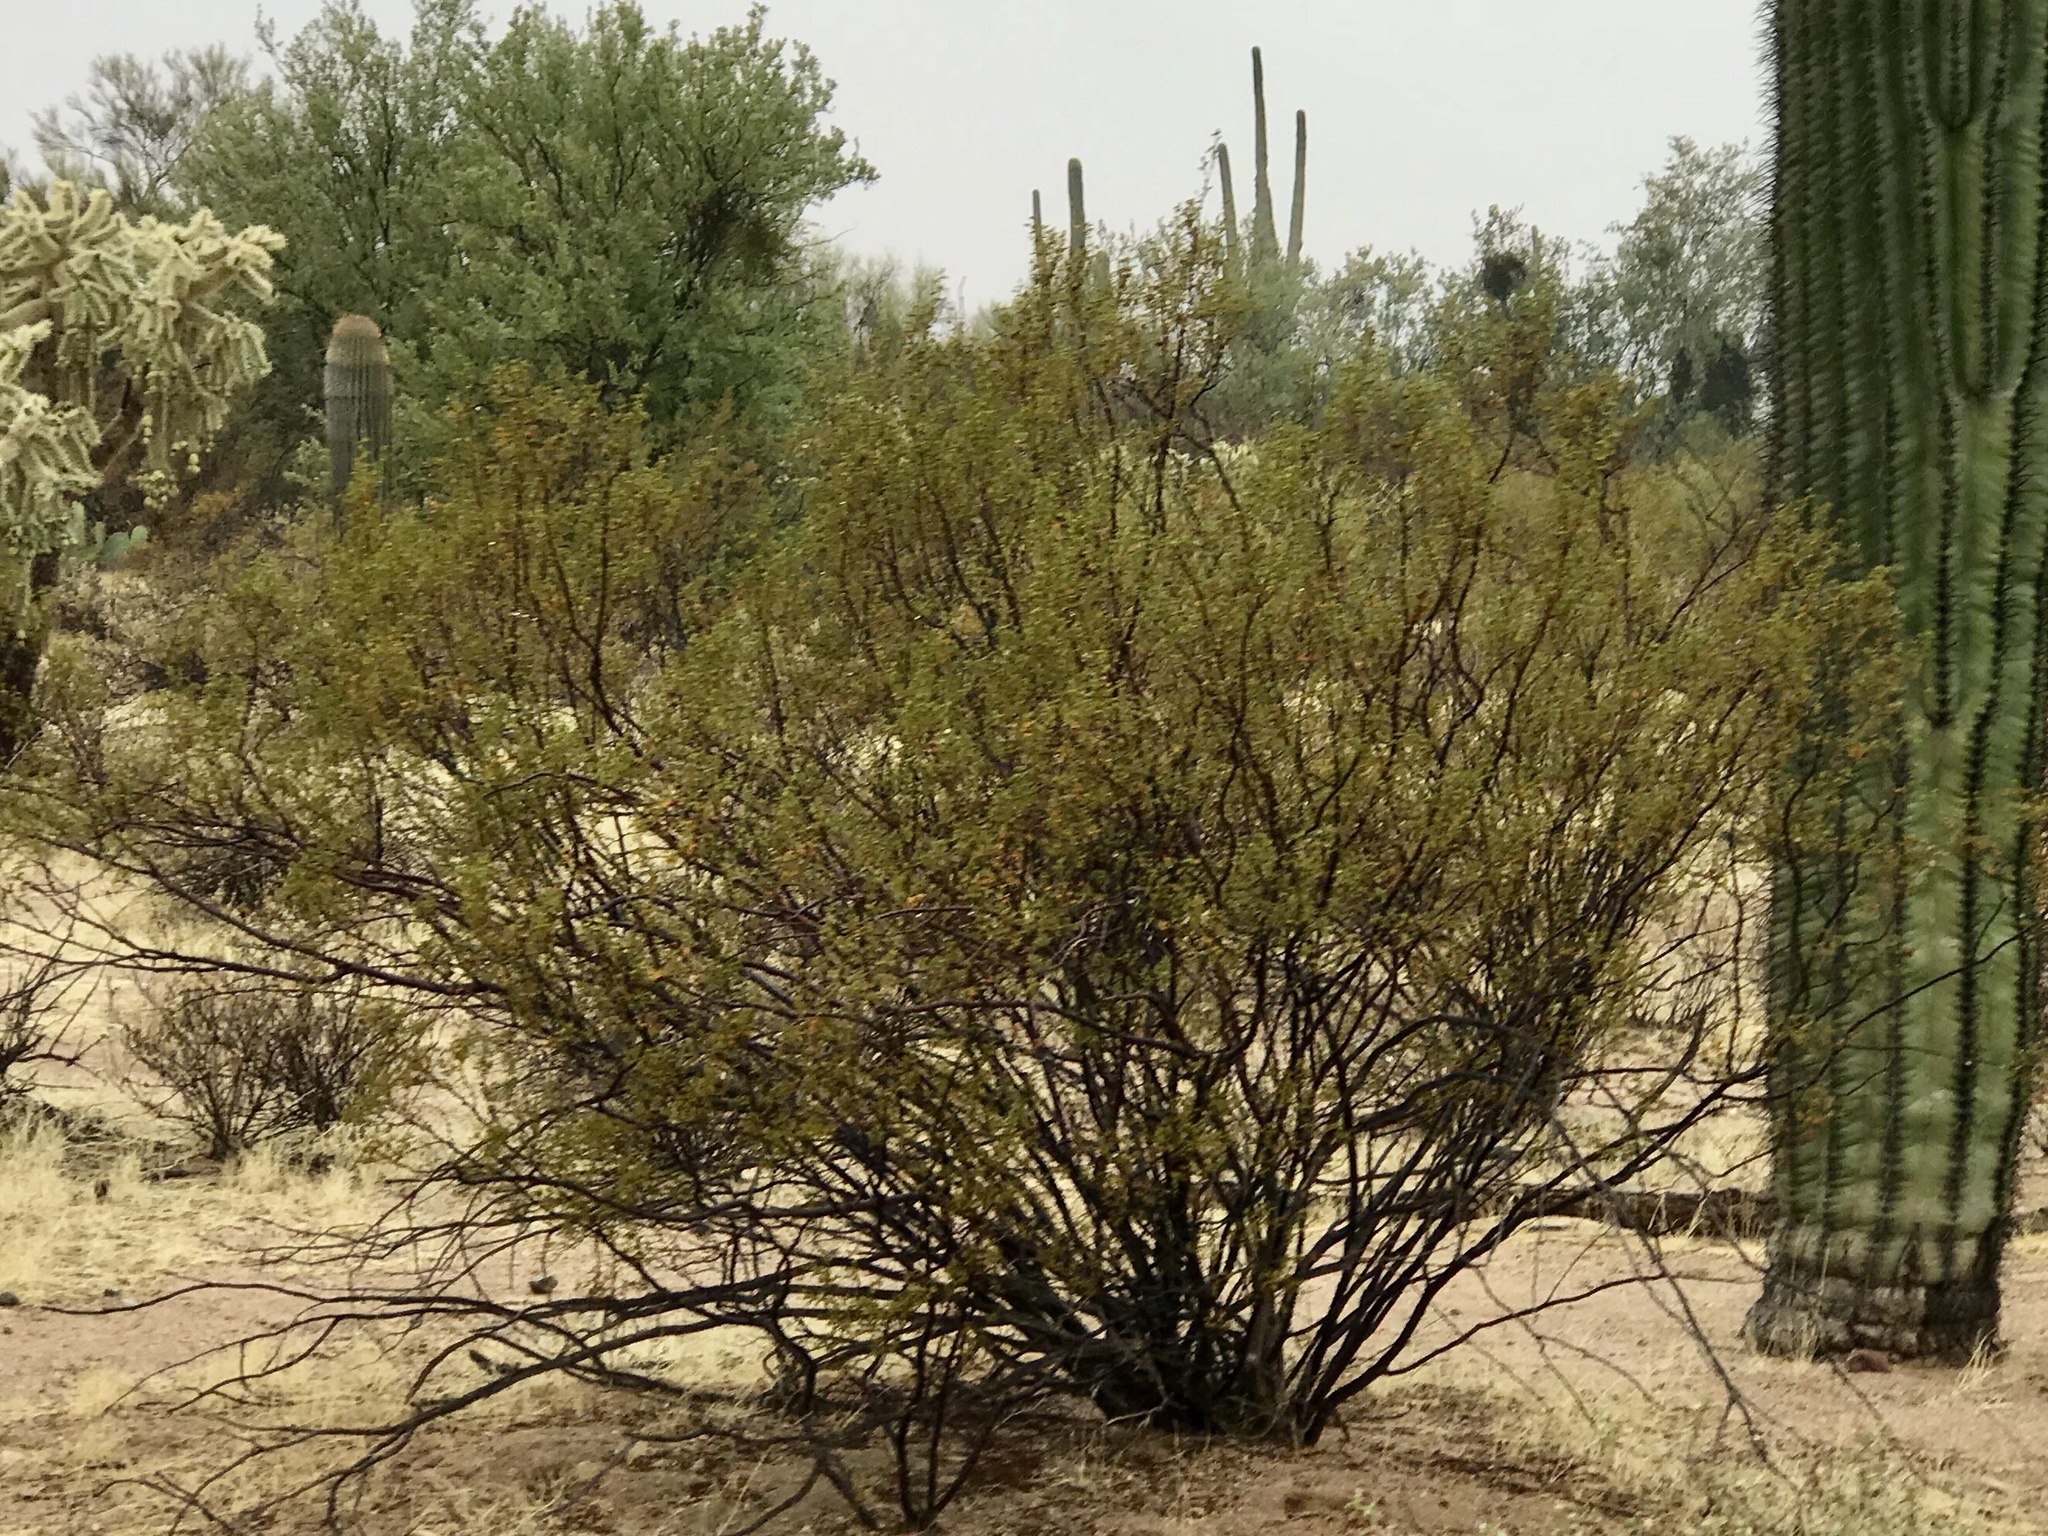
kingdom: Plantae
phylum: Tracheophyta
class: Magnoliopsida
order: Zygophyllales
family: Zygophyllaceae
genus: Larrea
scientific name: Larrea tridentata
